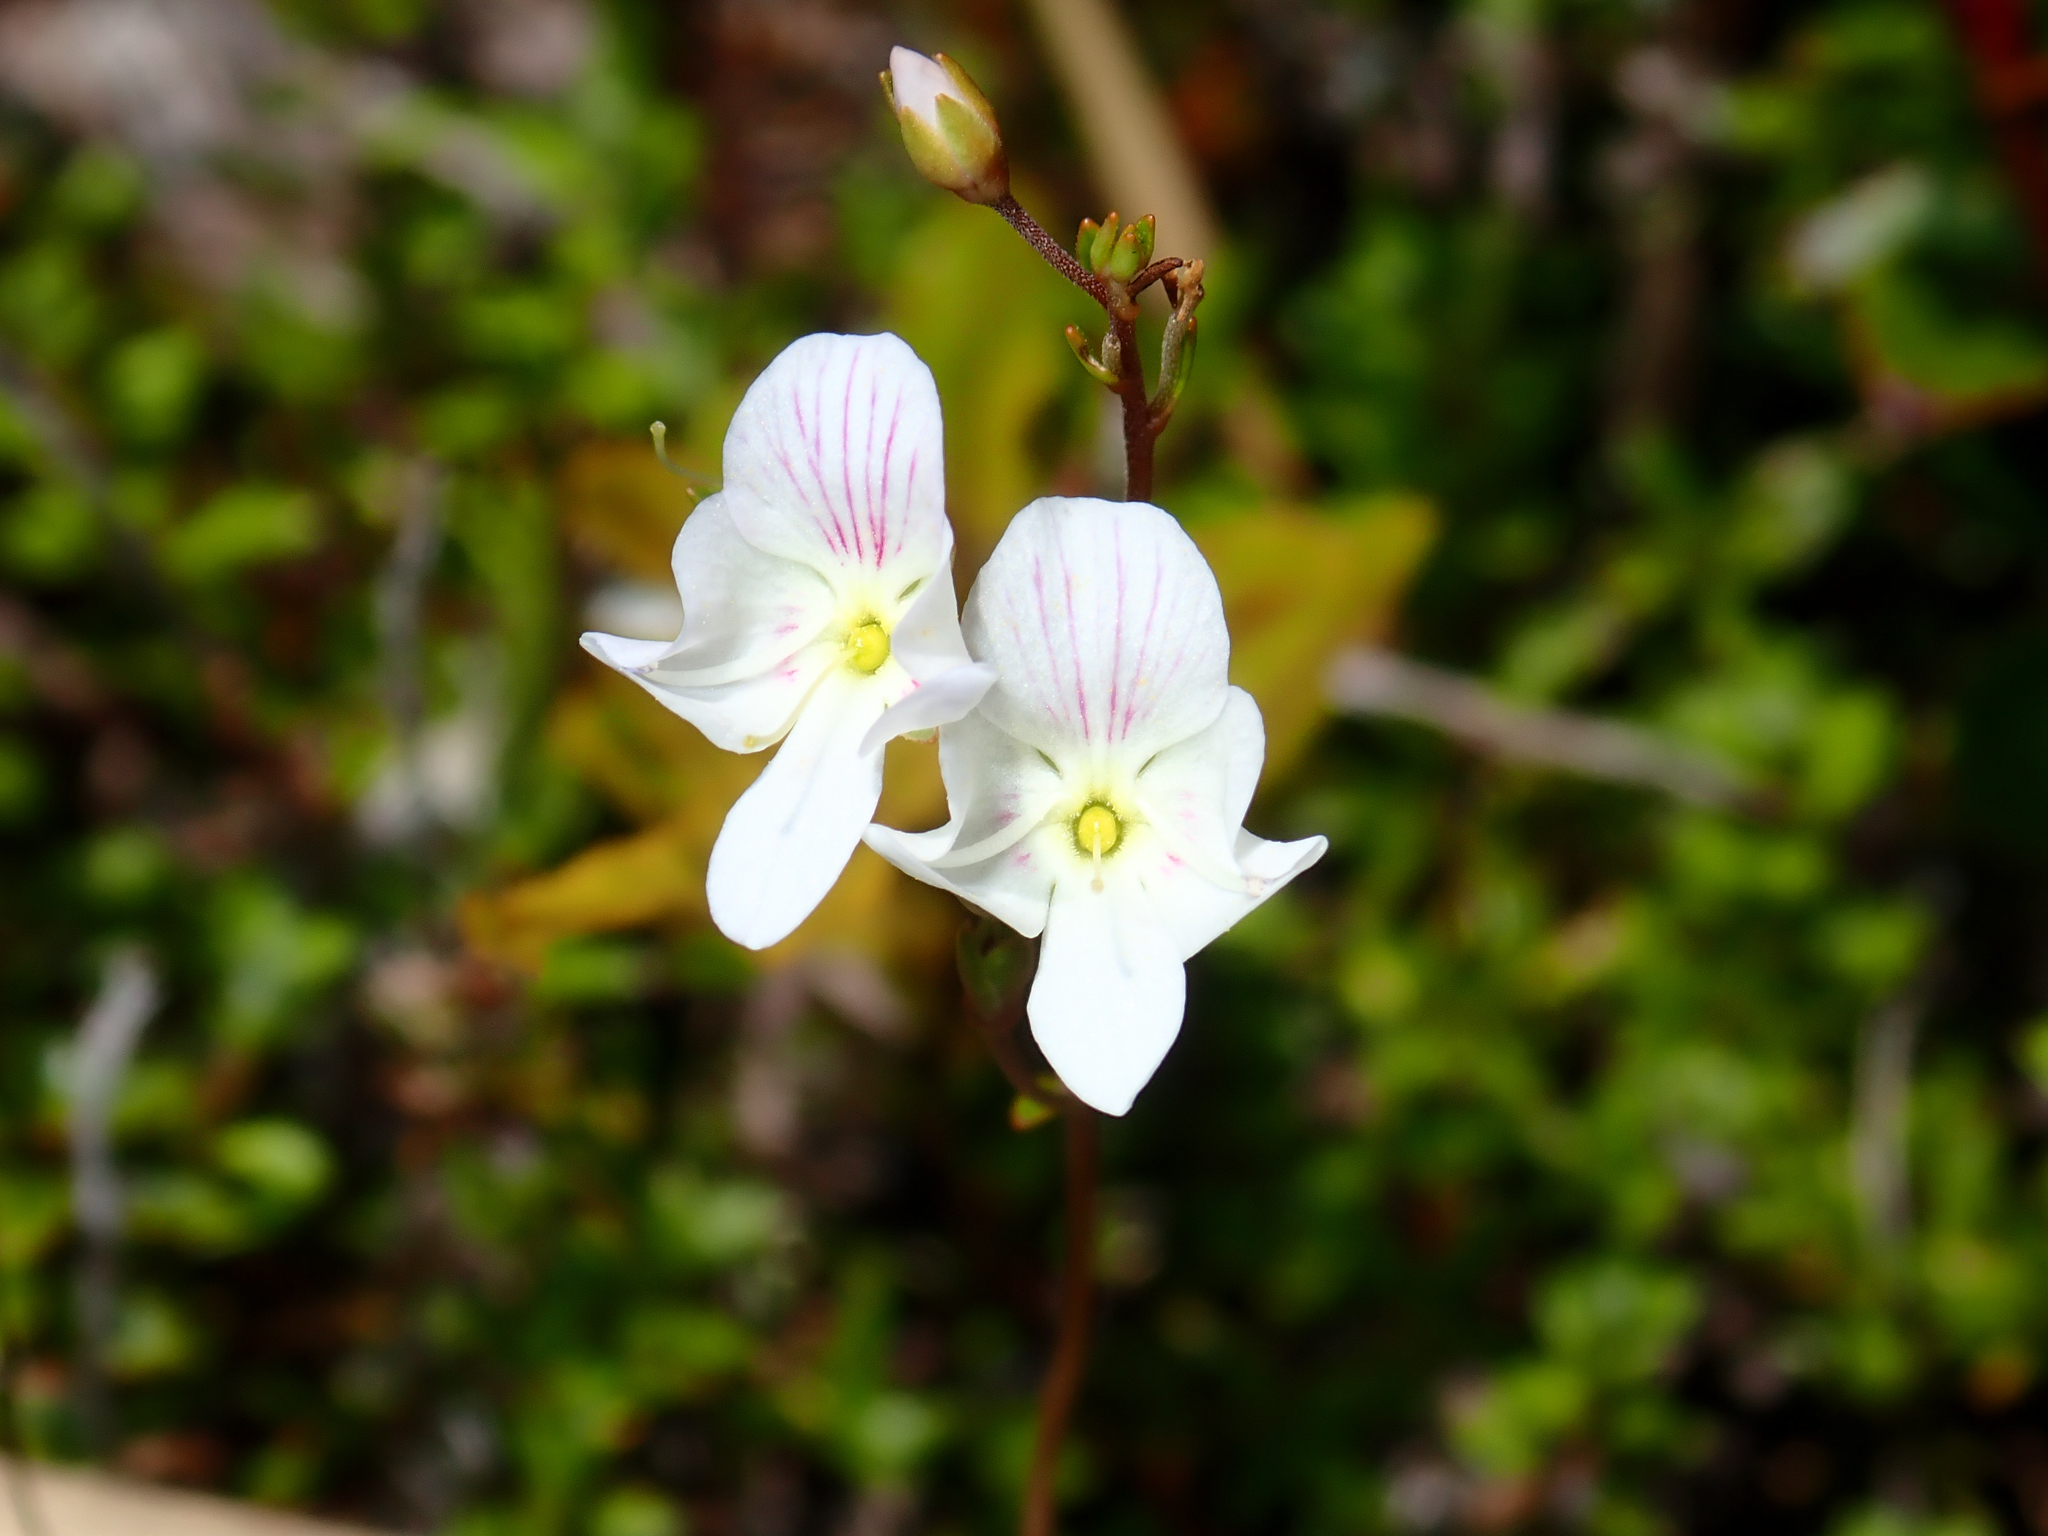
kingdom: Plantae
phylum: Tracheophyta
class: Magnoliopsida
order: Lamiales
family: Plantaginaceae
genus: Veronica
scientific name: Veronica lyallii
